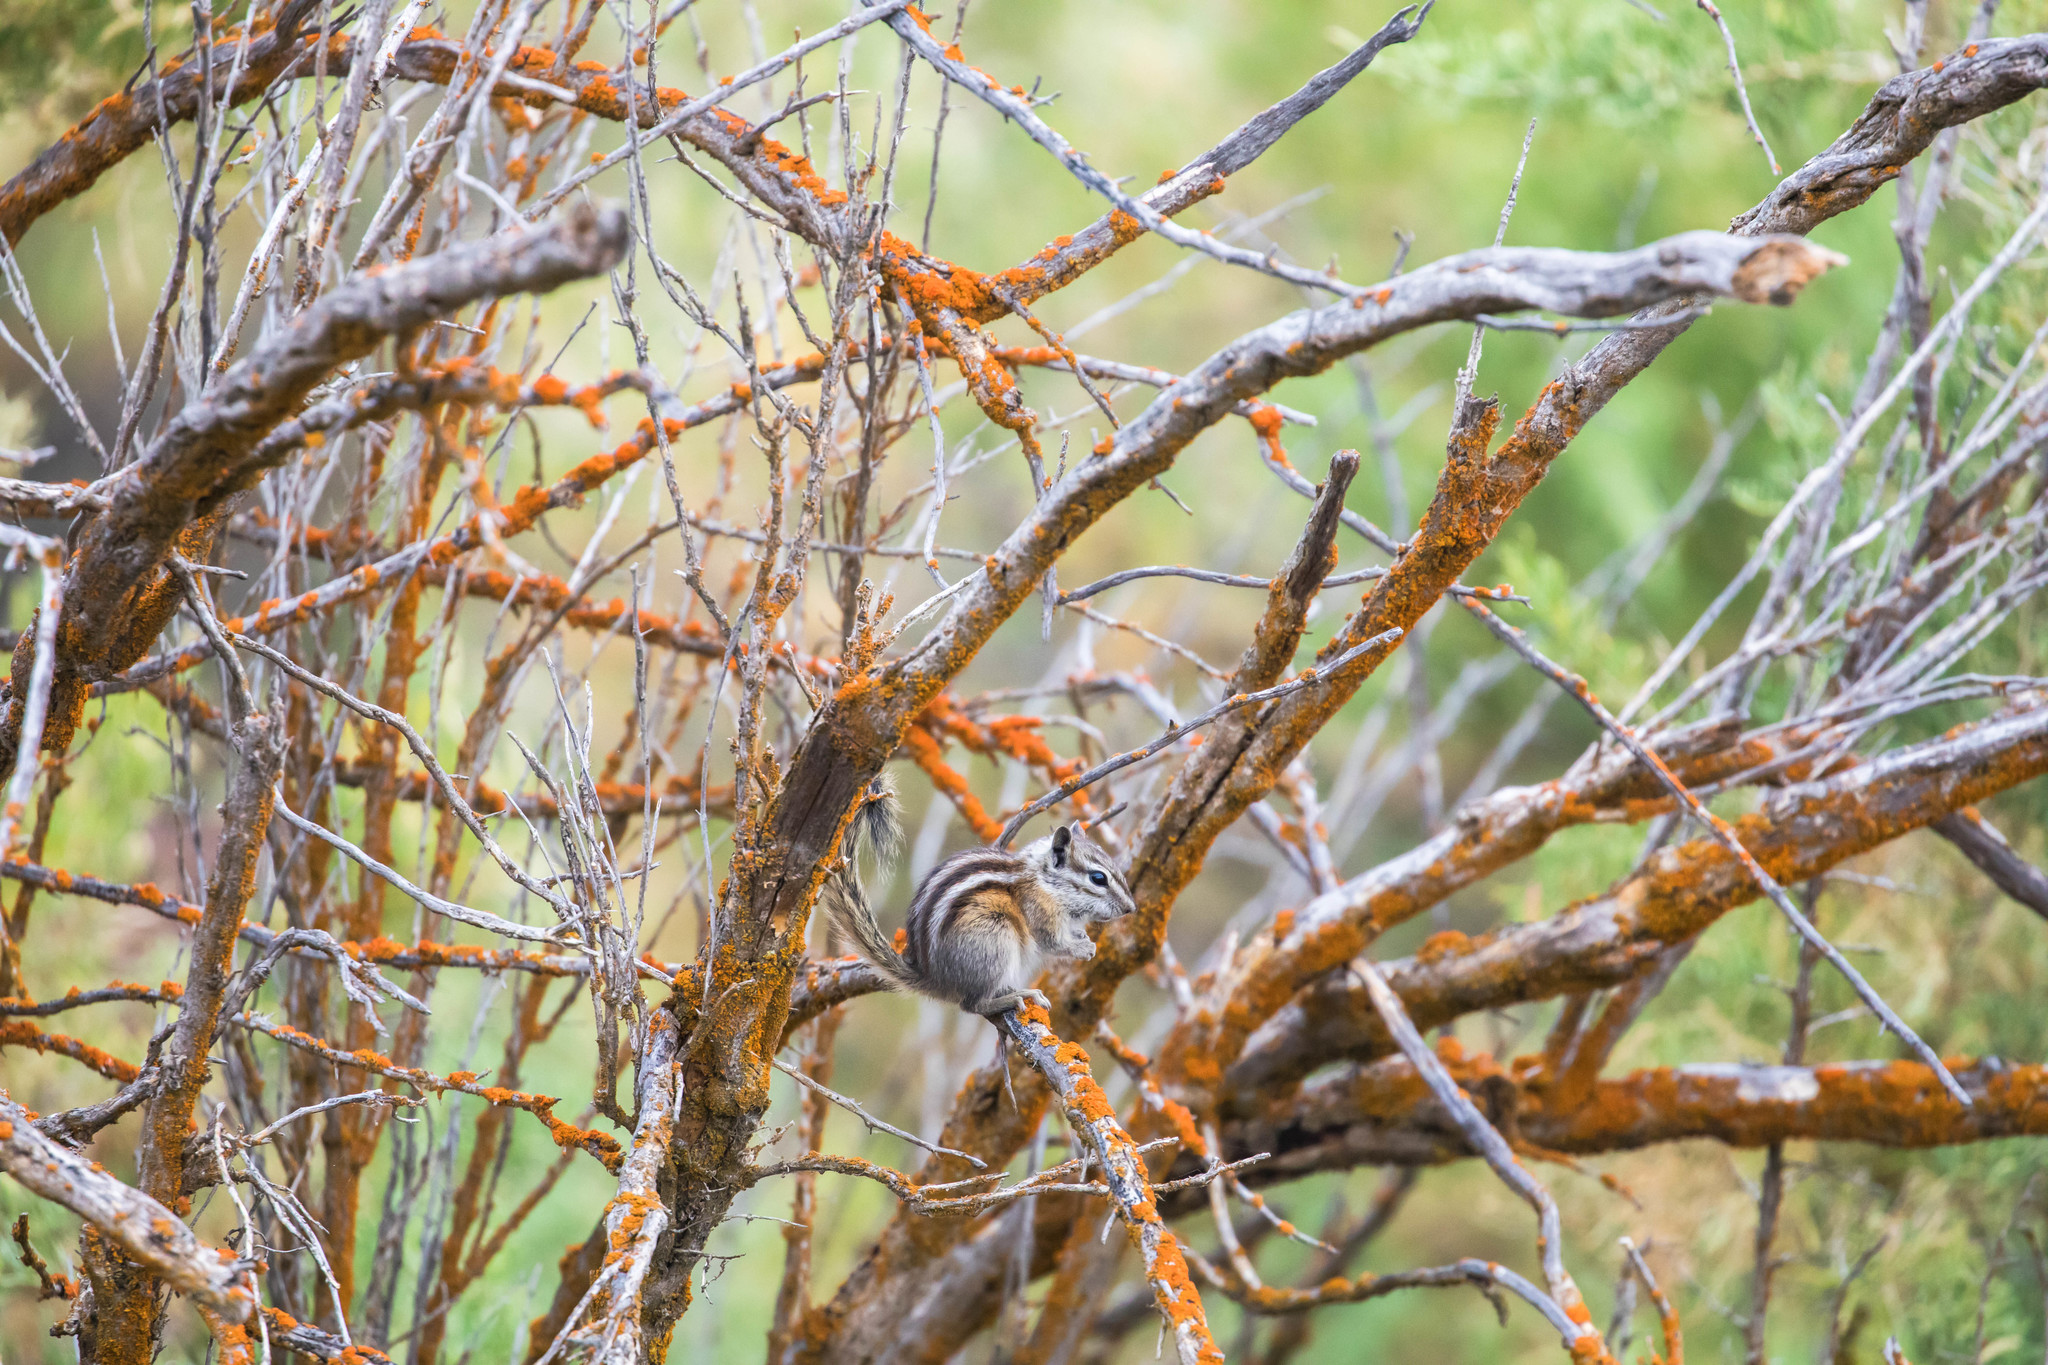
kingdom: Animalia
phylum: Chordata
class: Mammalia
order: Rodentia
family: Sciuridae
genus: Tamias
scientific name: Tamias minimus
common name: Least chipmunk
